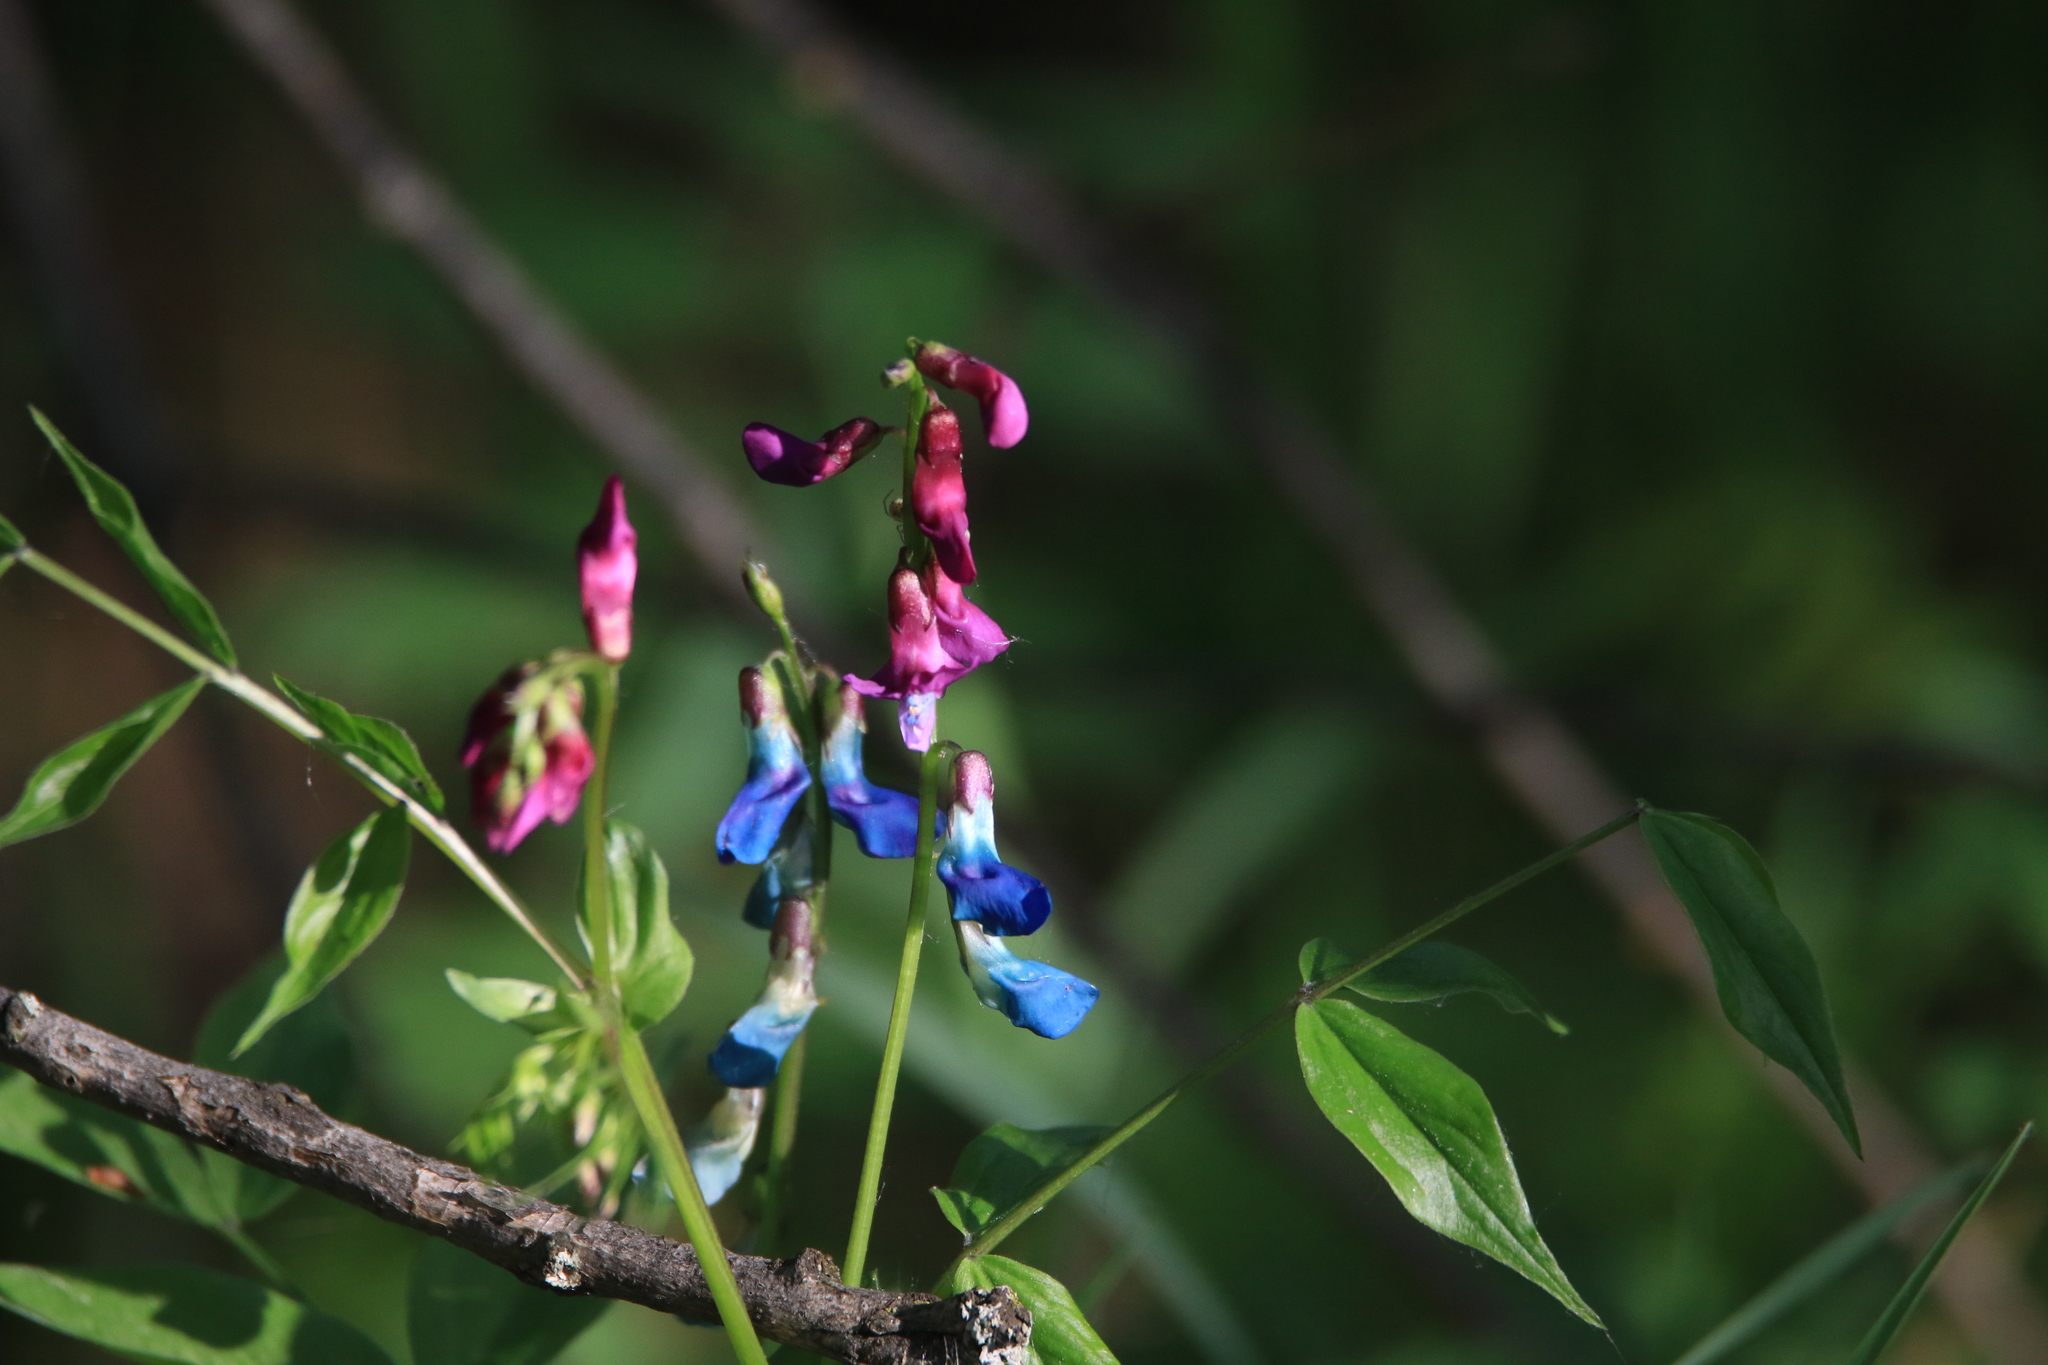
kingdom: Plantae
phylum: Tracheophyta
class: Magnoliopsida
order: Fabales
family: Fabaceae
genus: Lathyrus
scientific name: Lathyrus vernus
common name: Spring pea
